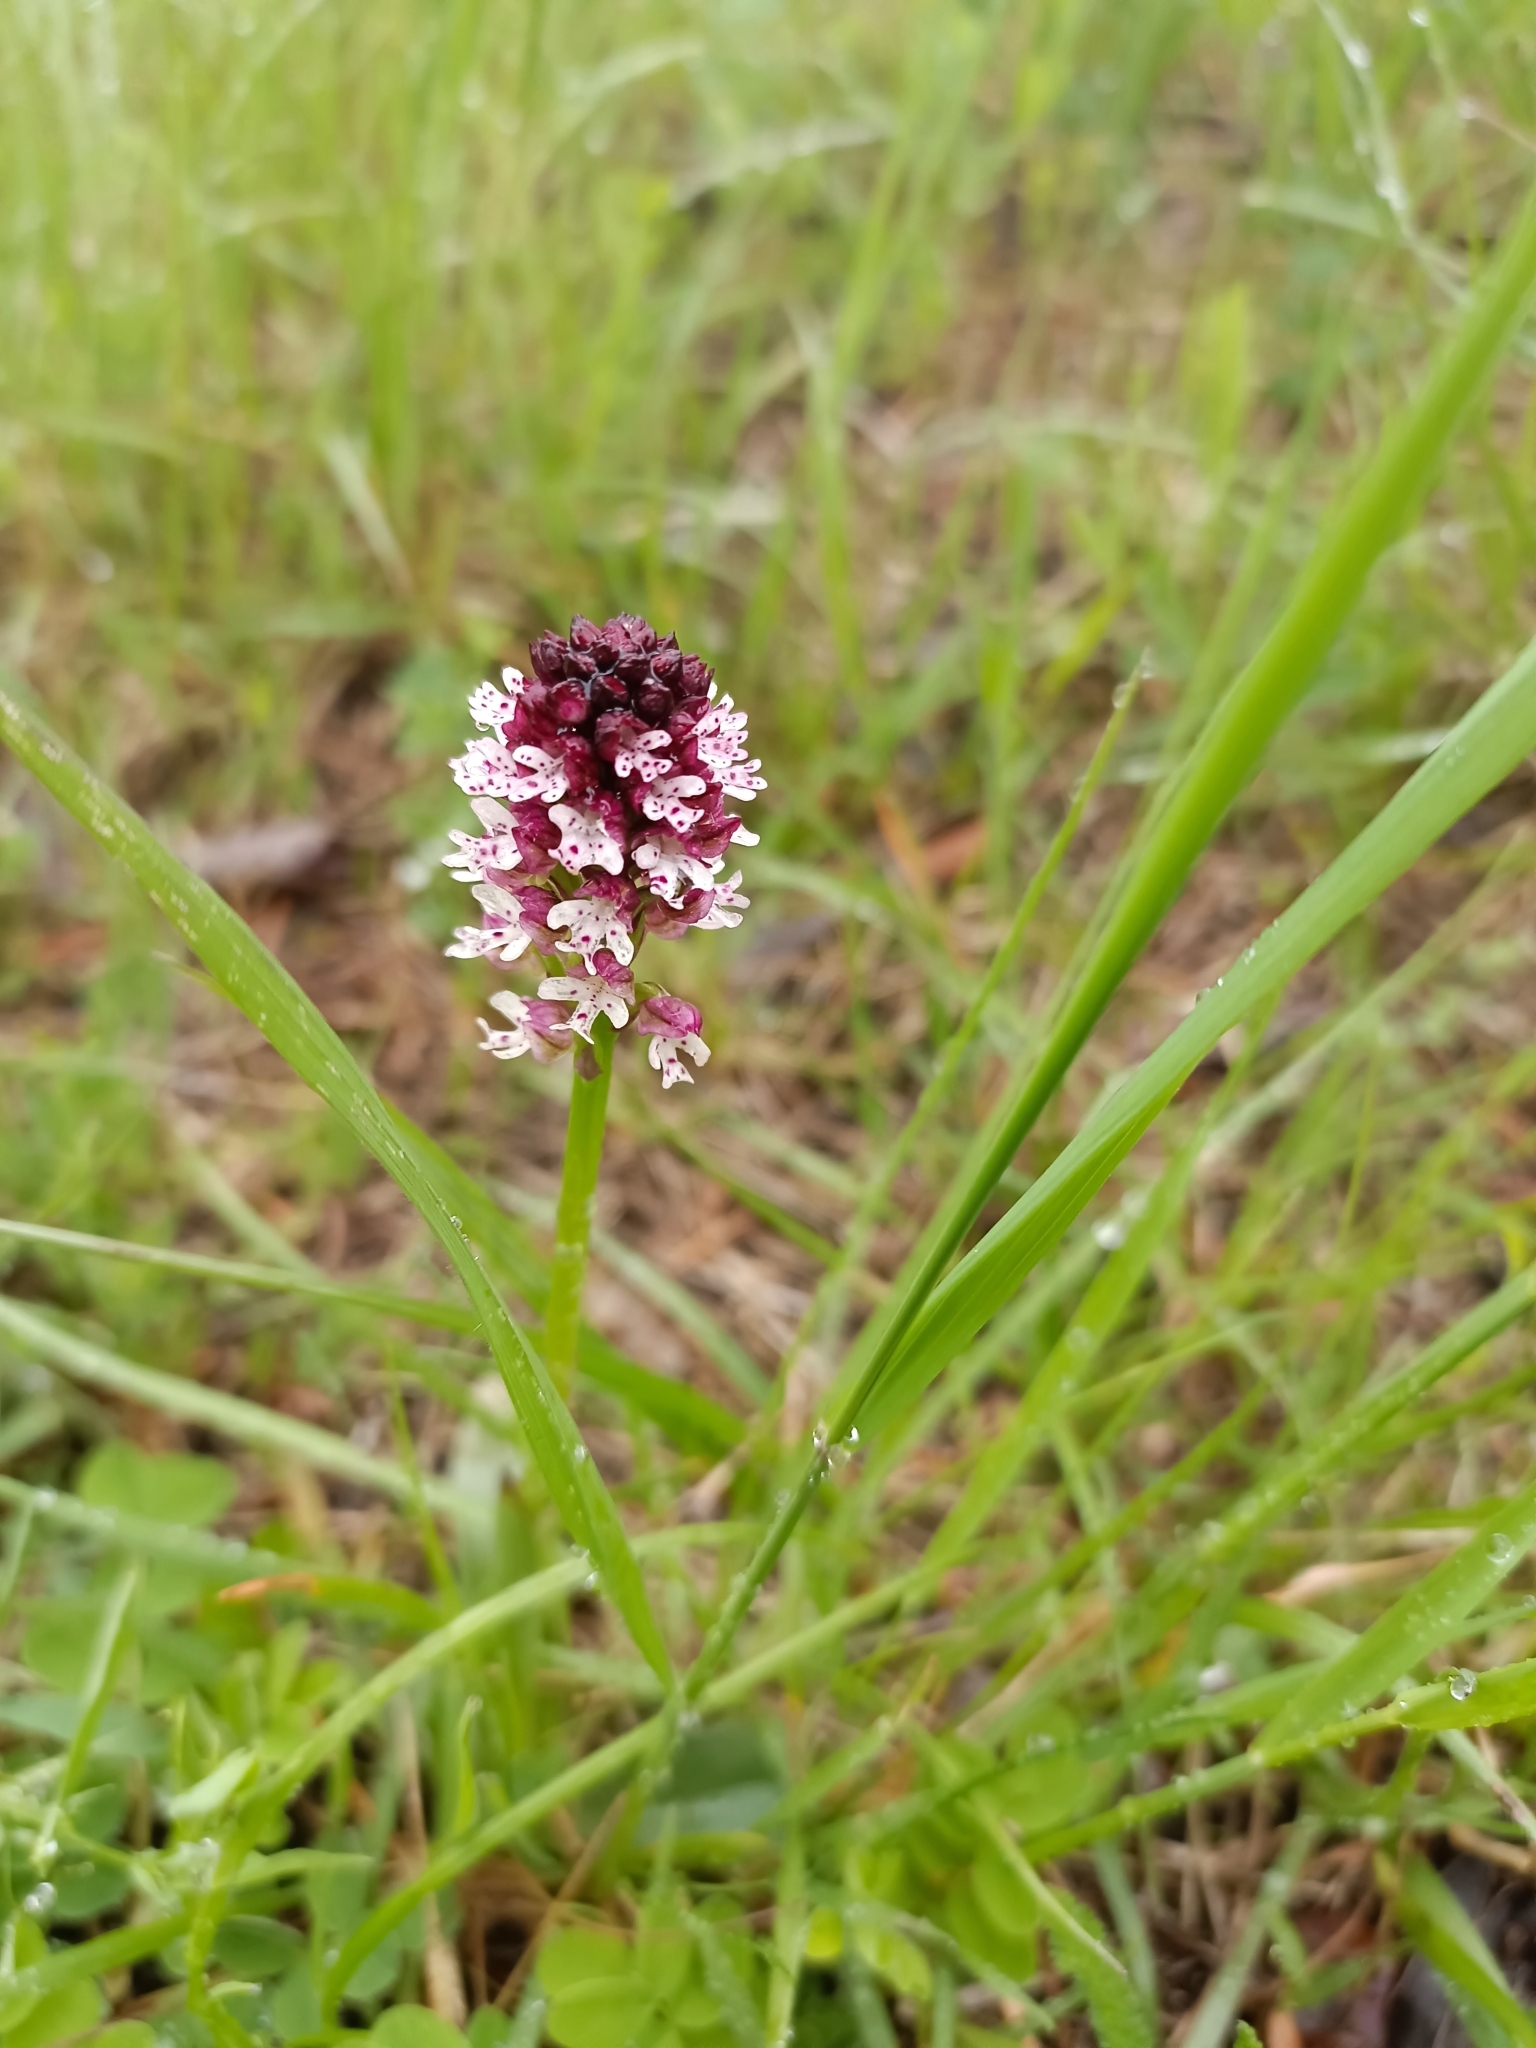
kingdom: Plantae
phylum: Tracheophyta
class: Liliopsida
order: Asparagales
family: Orchidaceae
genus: Neotinea
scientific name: Neotinea ustulata
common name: Burnt orchid
